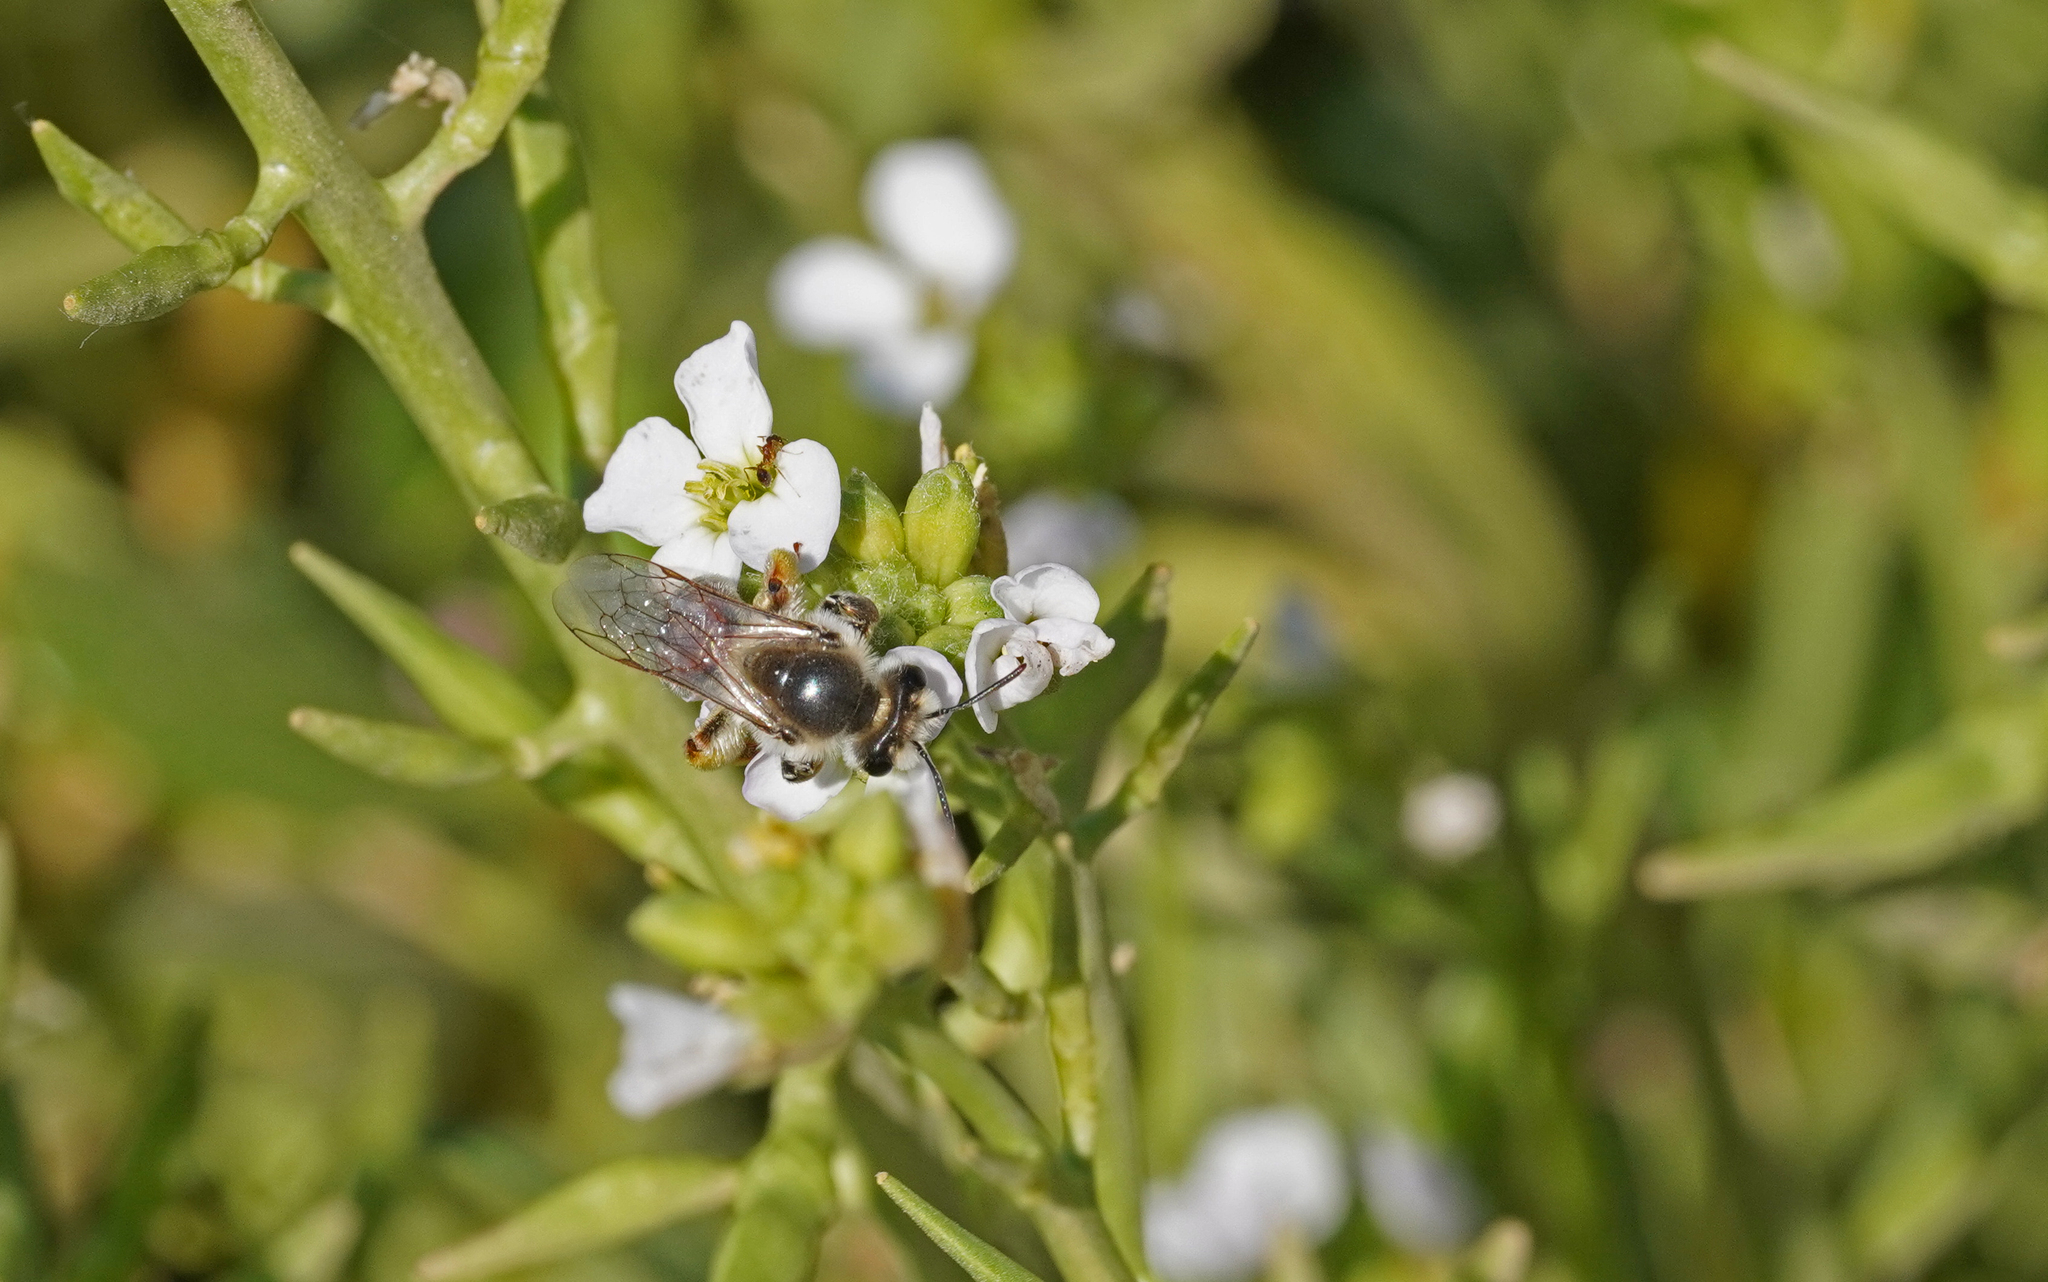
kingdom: Animalia
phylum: Arthropoda
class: Insecta
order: Hymenoptera
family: Andrenidae
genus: Andrena
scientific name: Andrena savignyi
